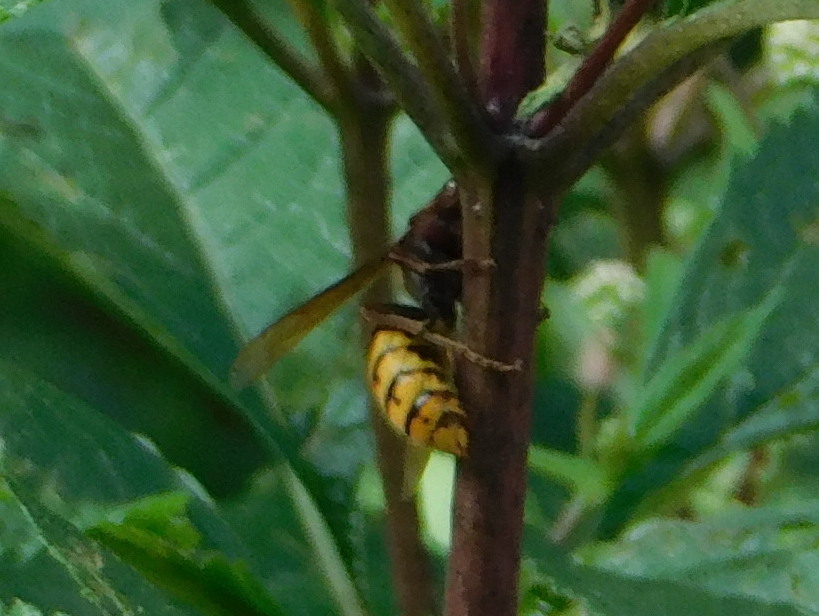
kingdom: Animalia
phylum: Arthropoda
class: Insecta
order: Hymenoptera
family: Vespidae
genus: Vespa
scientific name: Vespa crabro
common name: Hornet
